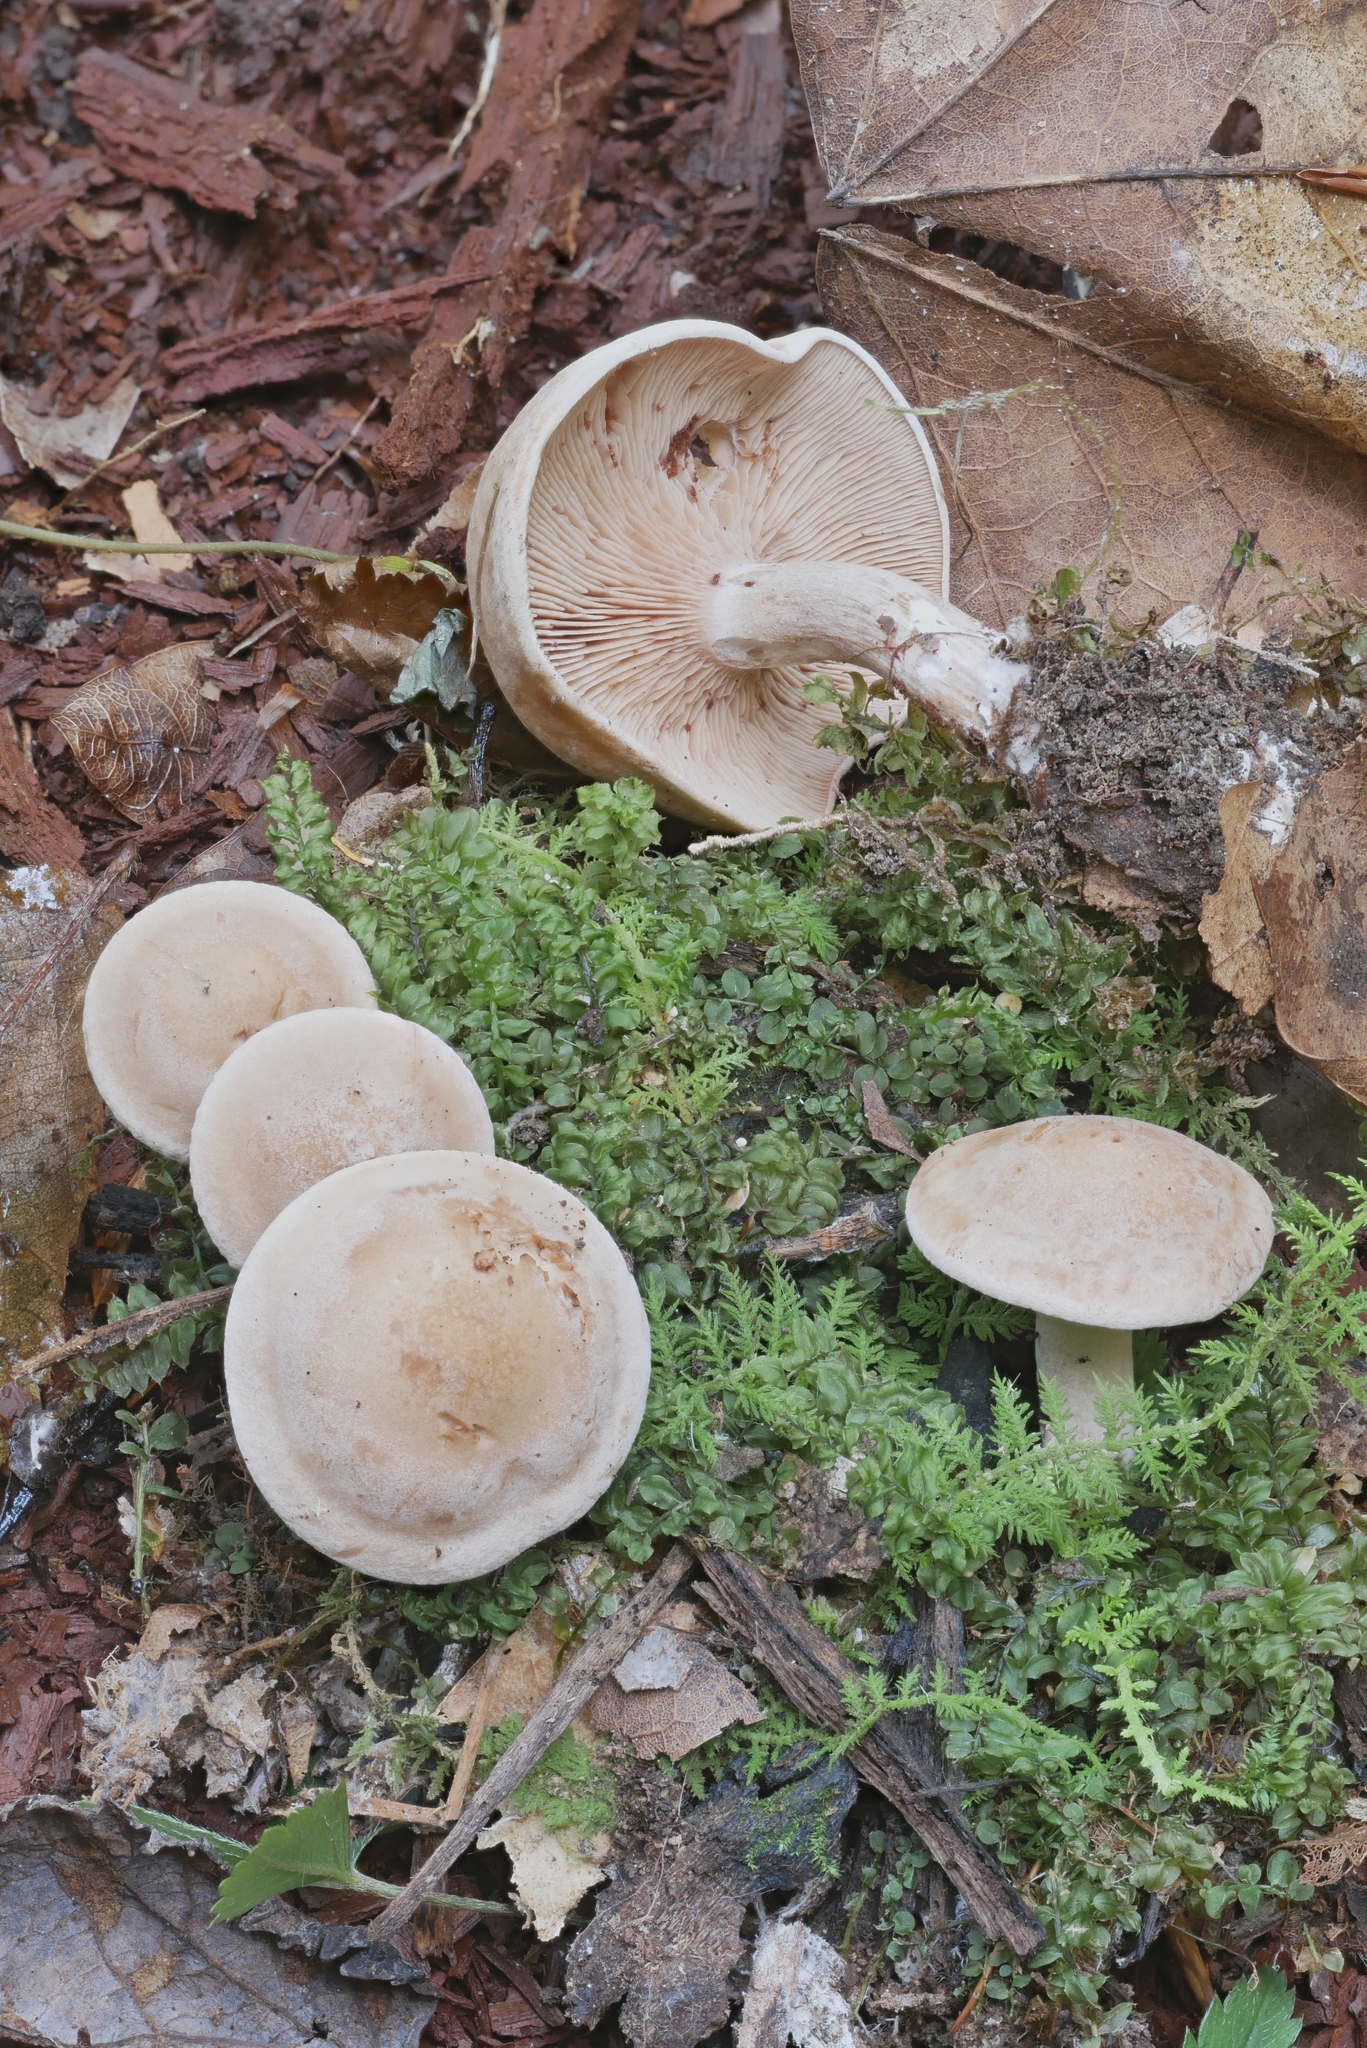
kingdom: Fungi
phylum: Basidiomycota
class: Agaricomycetes
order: Agaricales
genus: Hertzogia
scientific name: Hertzogia martiorum
